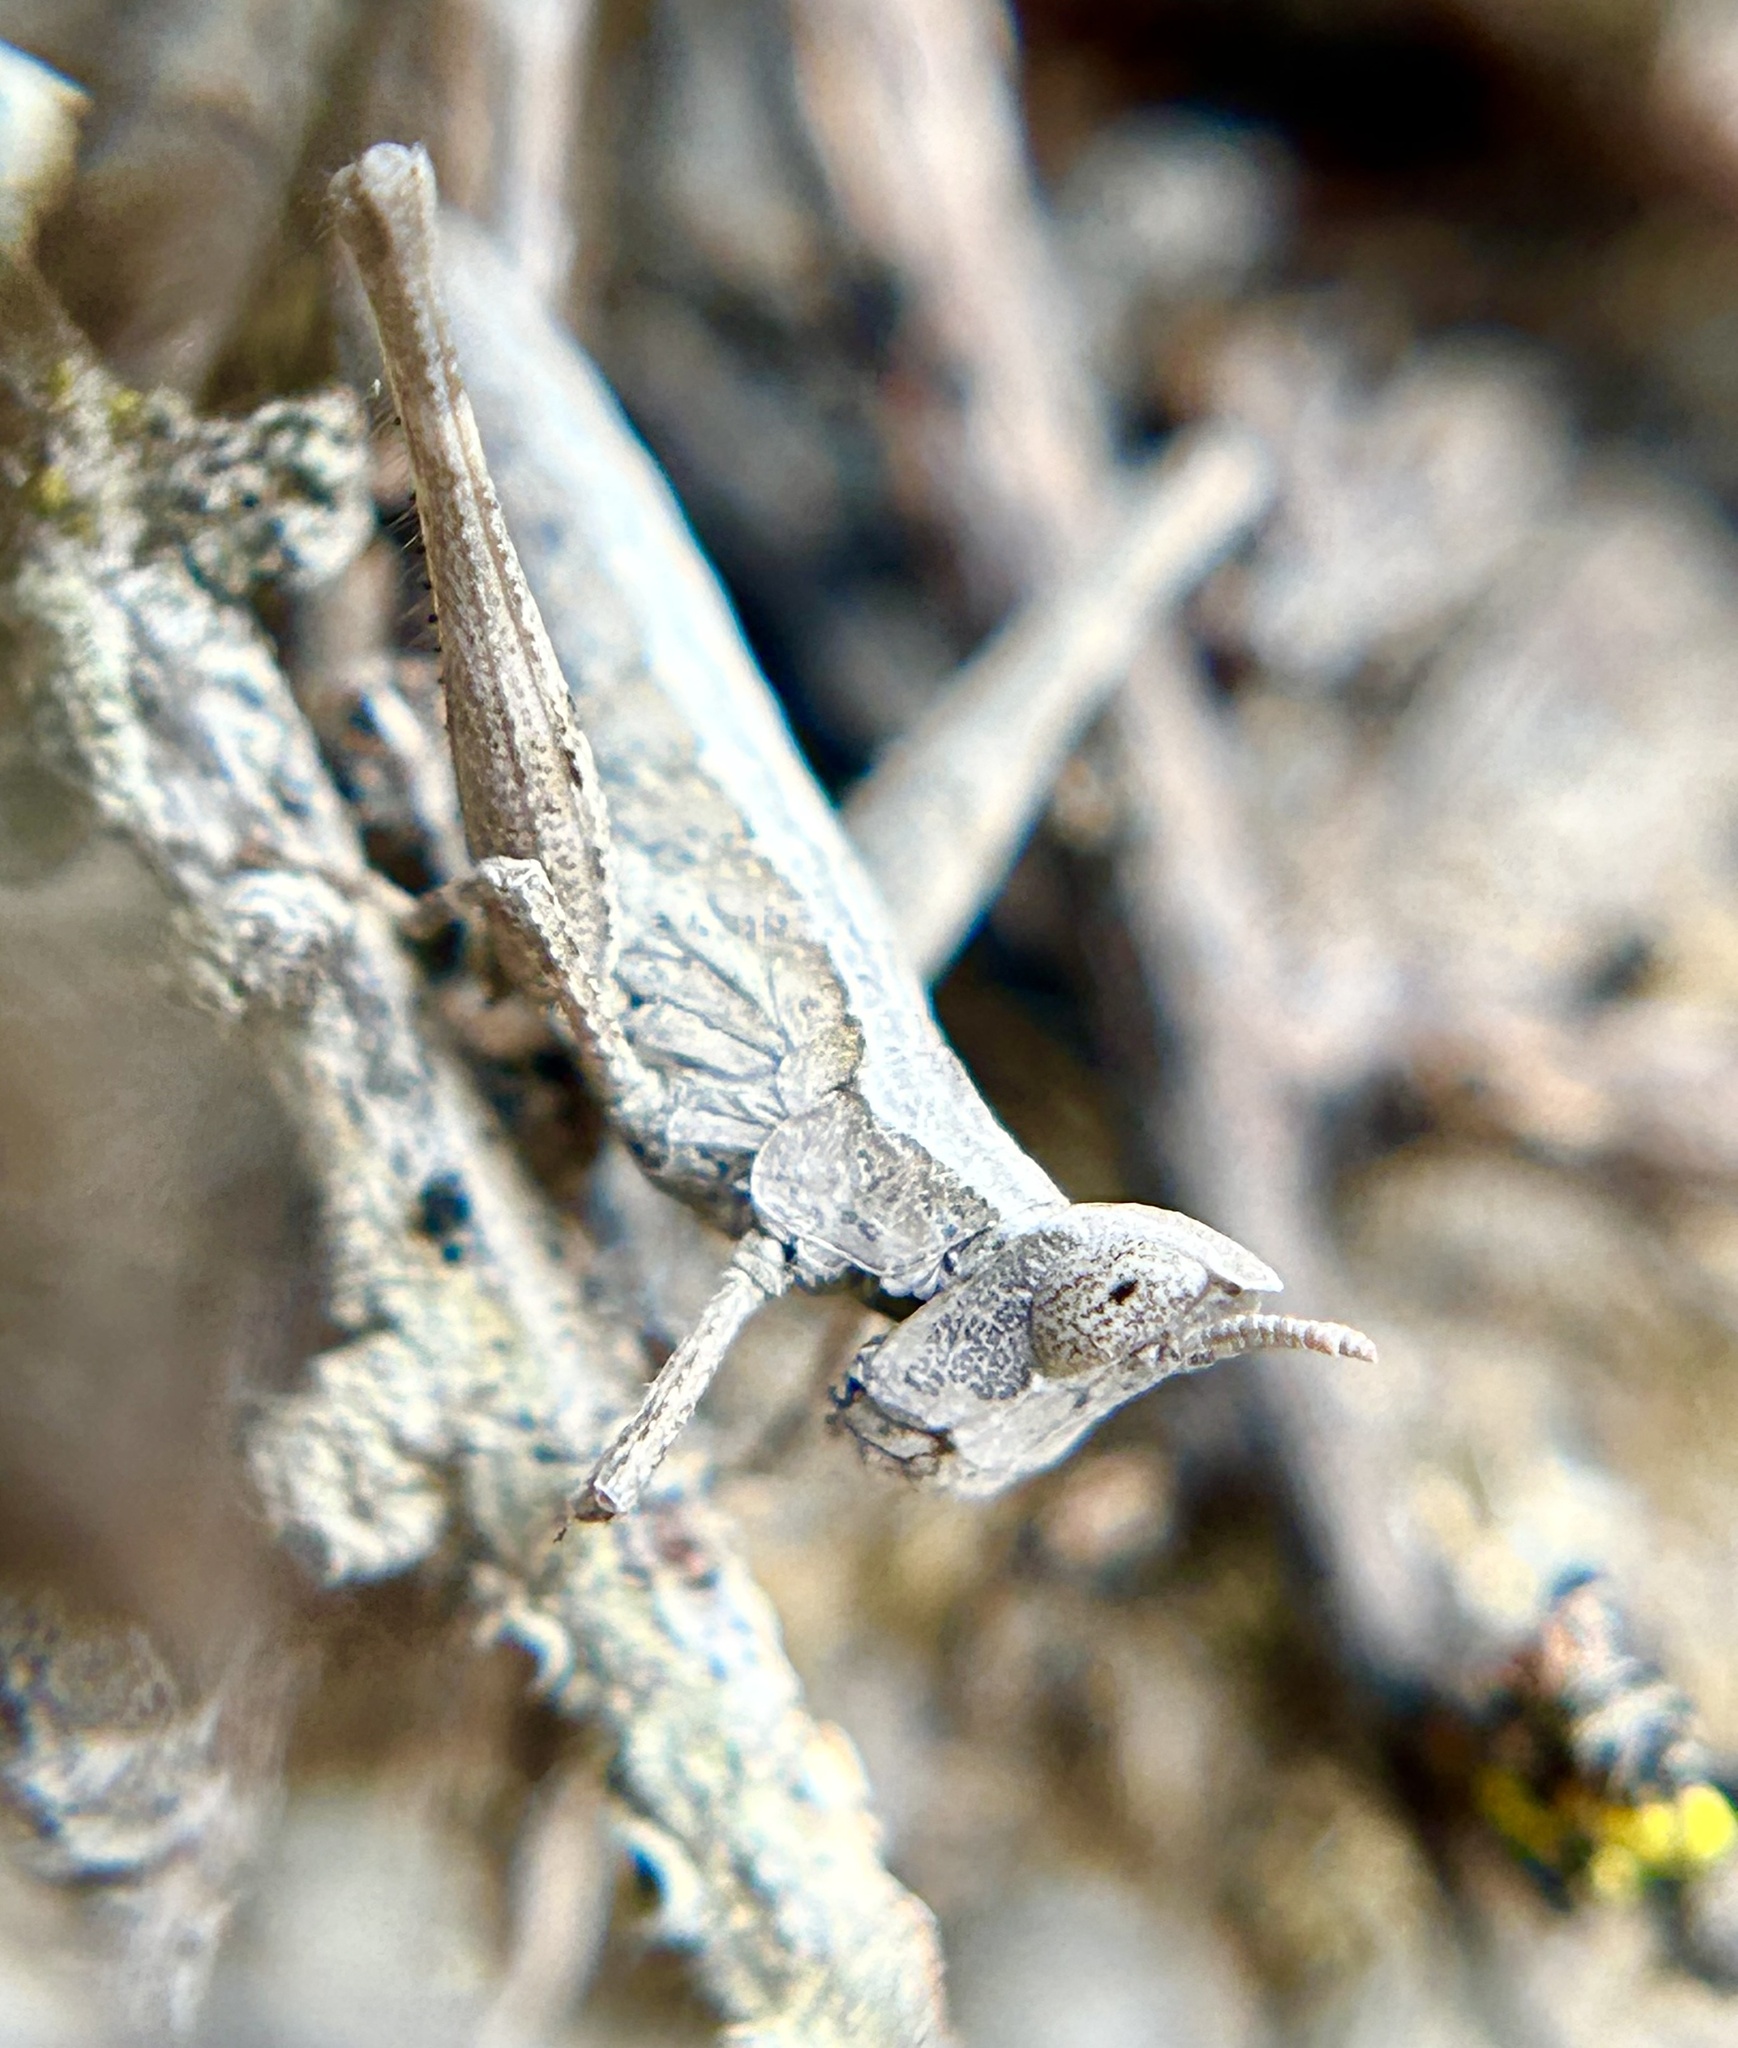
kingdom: Animalia
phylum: Arthropoda
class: Insecta
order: Orthoptera
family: Eumastacidae
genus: Morsea
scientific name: Morsea californica
